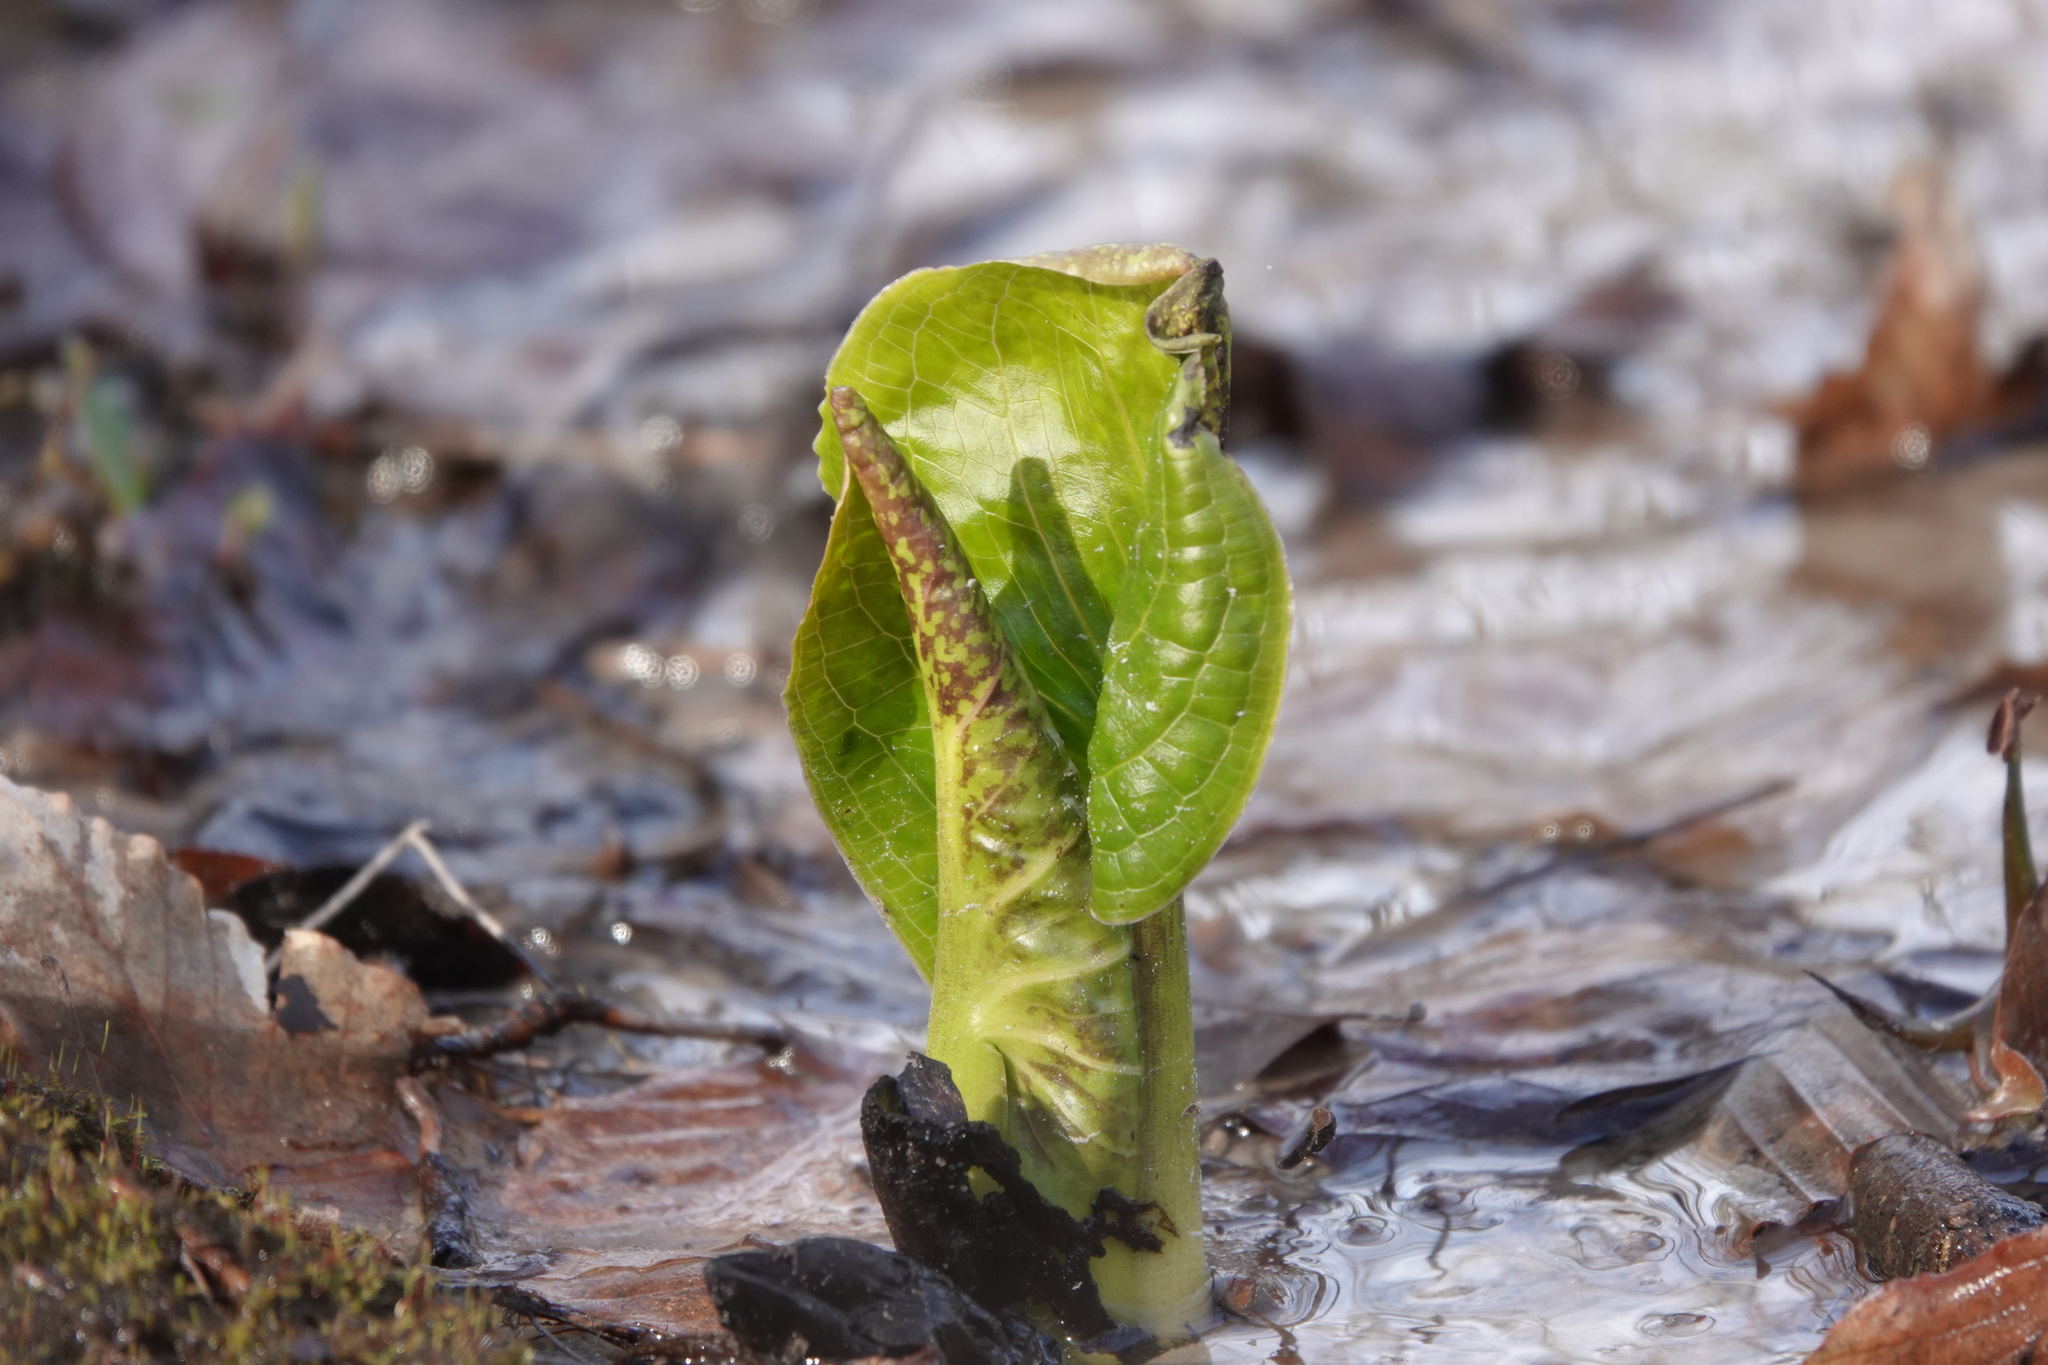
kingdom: Plantae
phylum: Tracheophyta
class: Liliopsida
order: Alismatales
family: Araceae
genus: Symplocarpus
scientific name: Symplocarpus foetidus
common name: Eastern skunk cabbage
